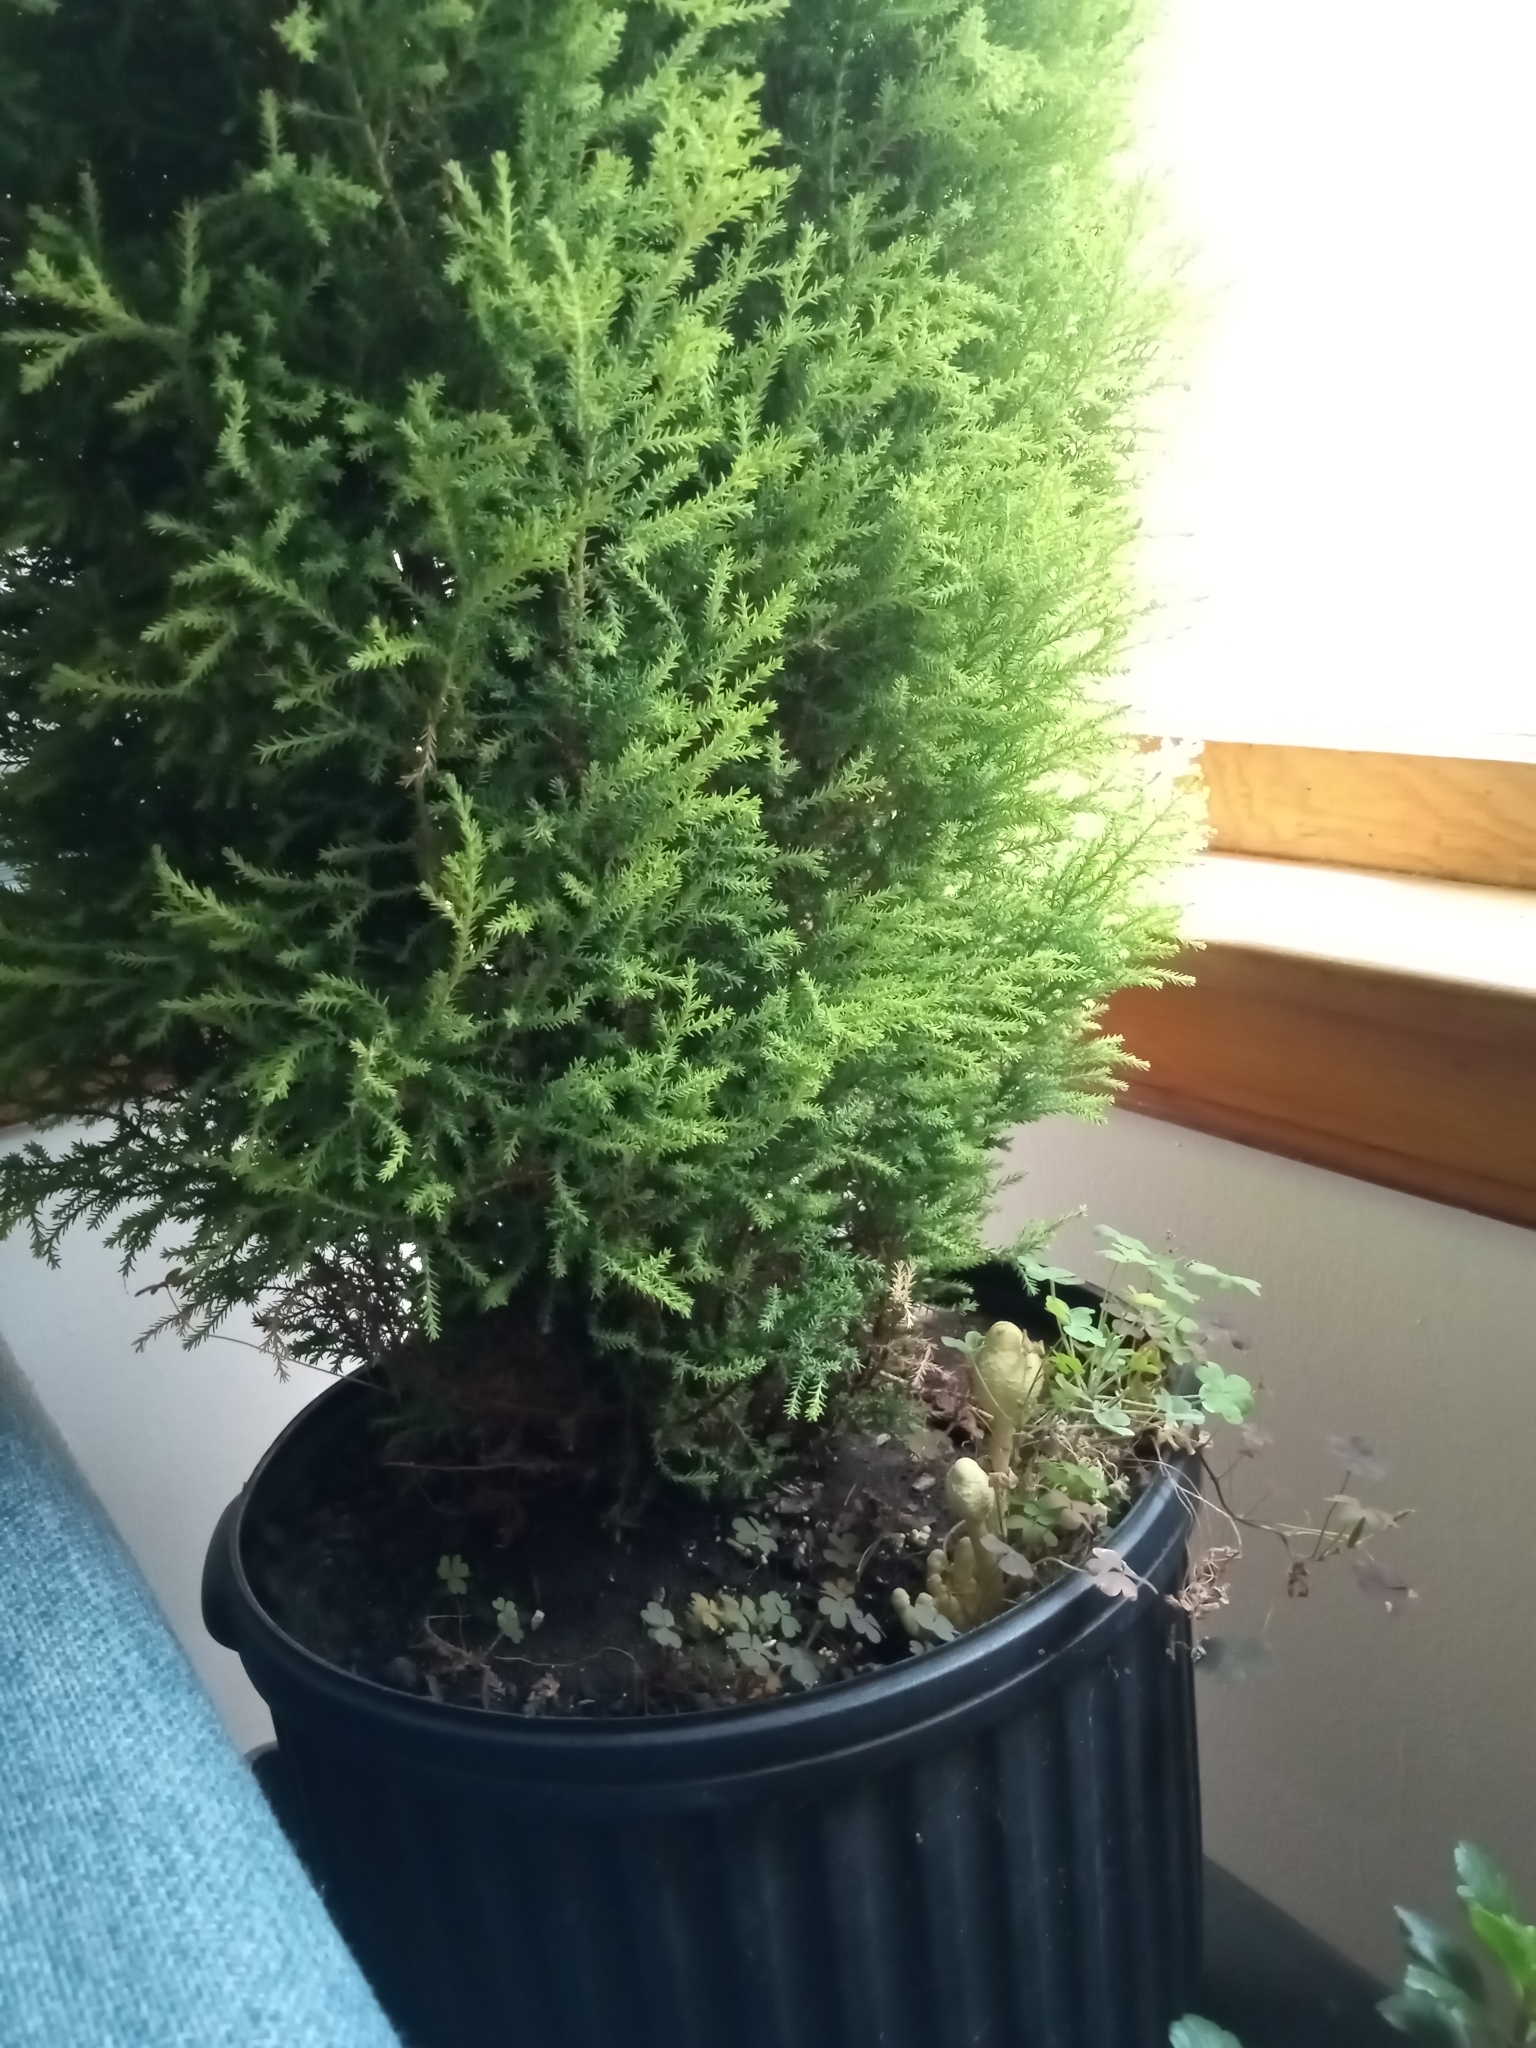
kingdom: Fungi
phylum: Basidiomycota
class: Agaricomycetes
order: Agaricales
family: Agaricaceae
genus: Leucocoprinus
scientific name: Leucocoprinus birnbaumii
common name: Plantpot dapperling
